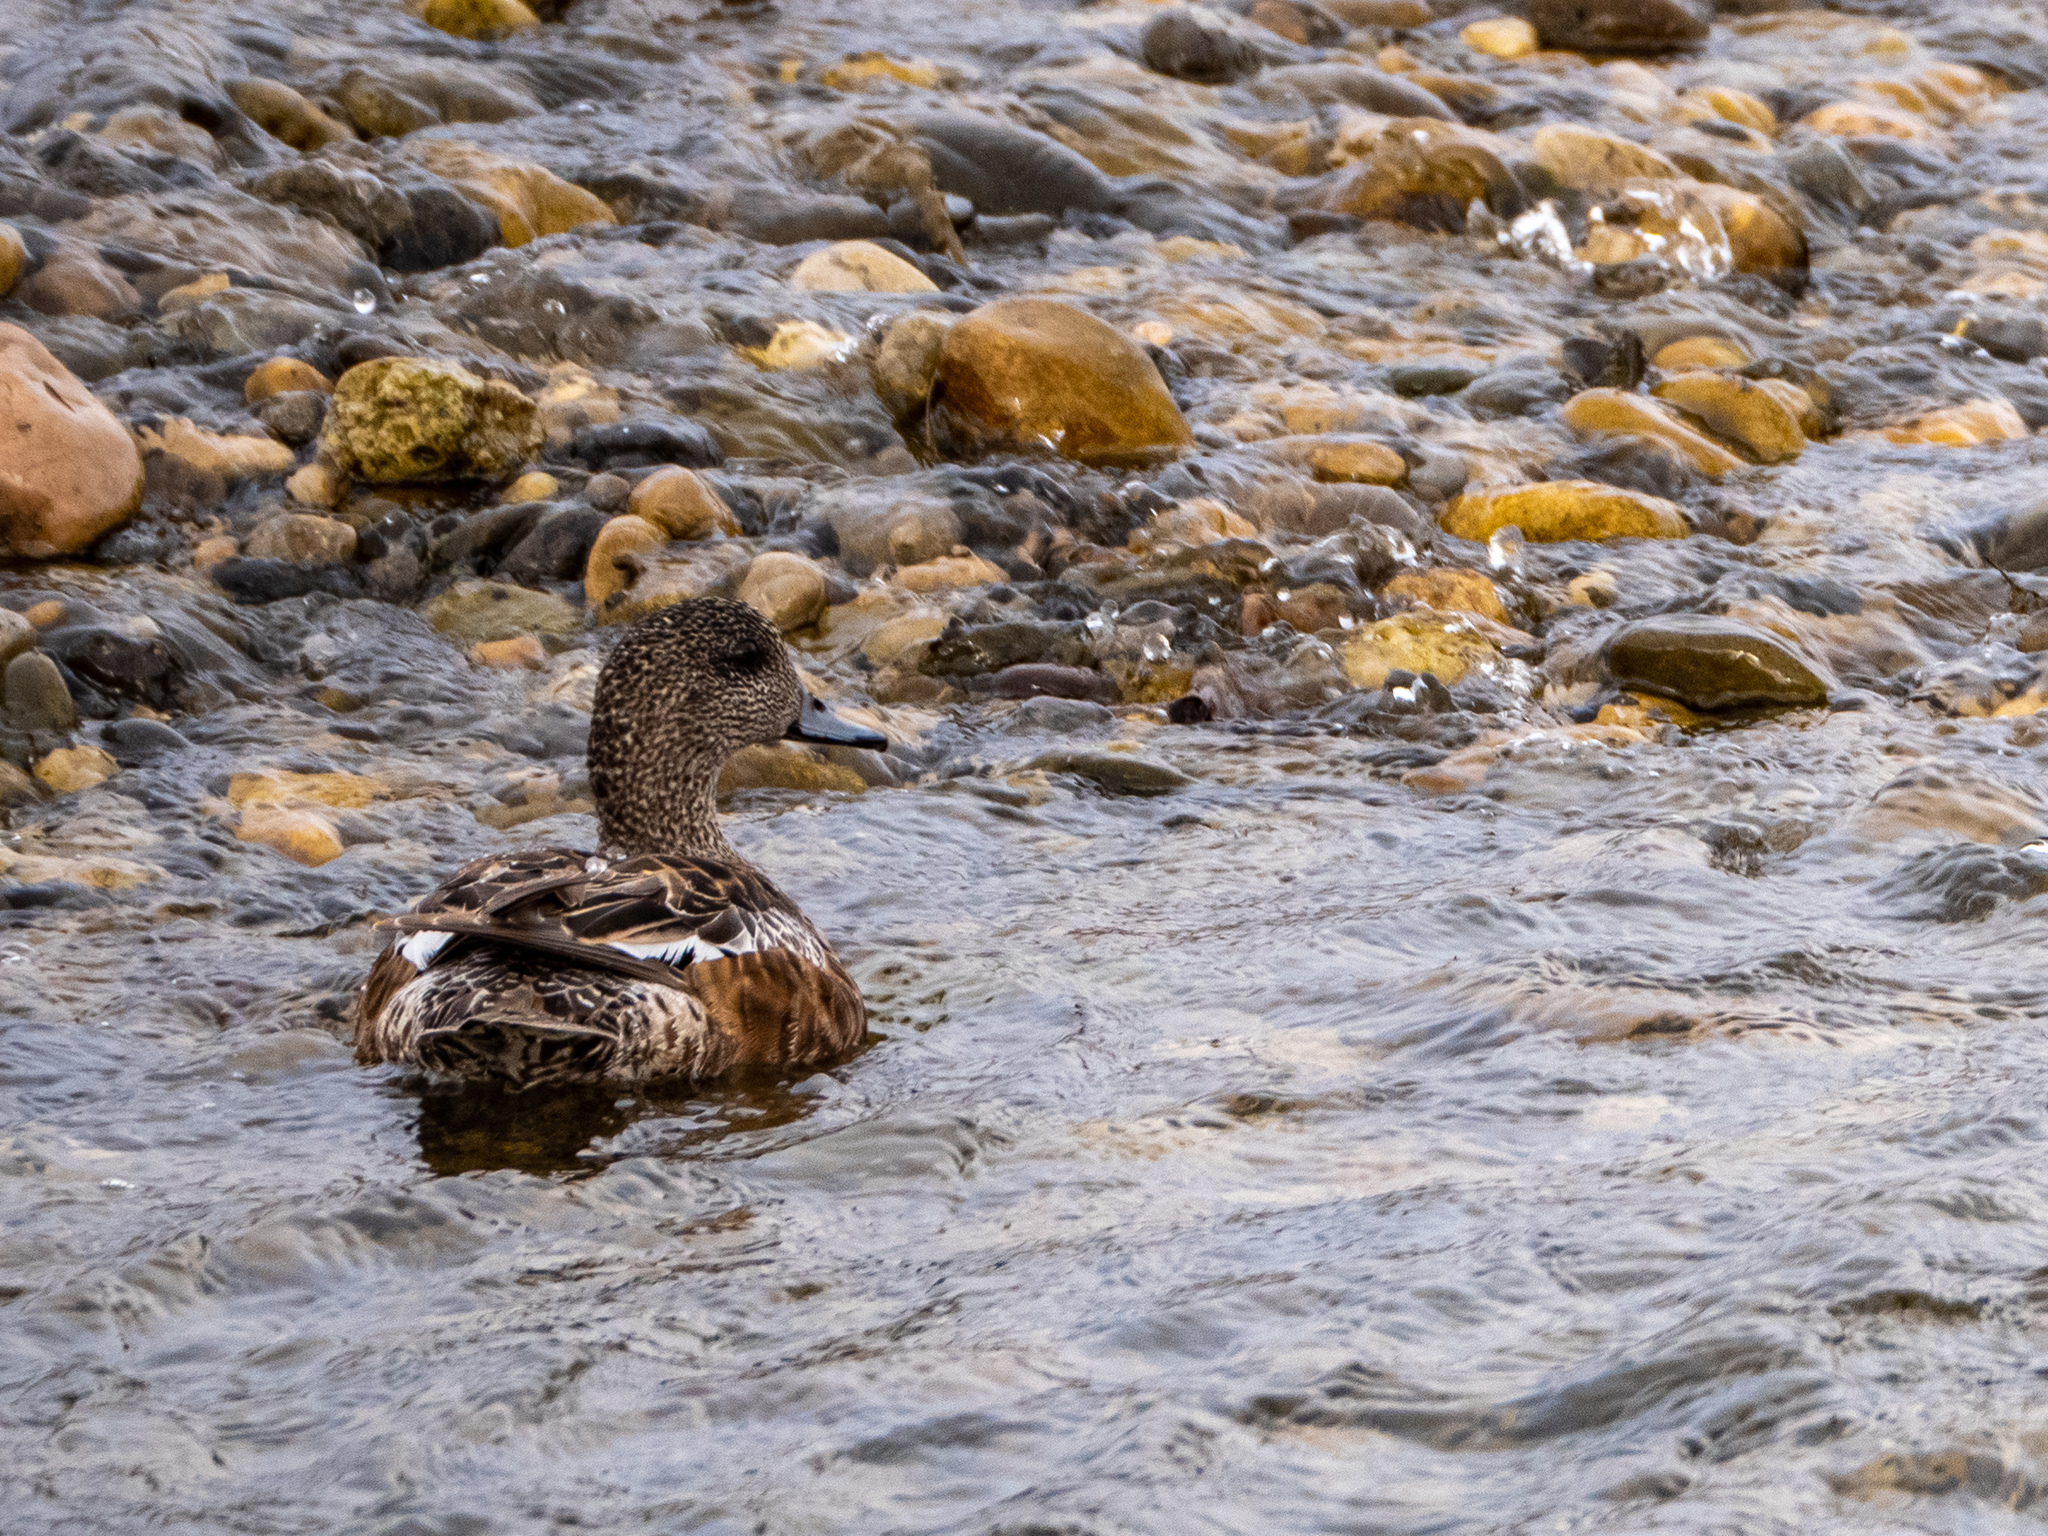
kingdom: Animalia
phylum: Chordata
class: Aves
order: Anseriformes
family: Anatidae
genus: Mareca
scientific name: Mareca americana
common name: American wigeon
